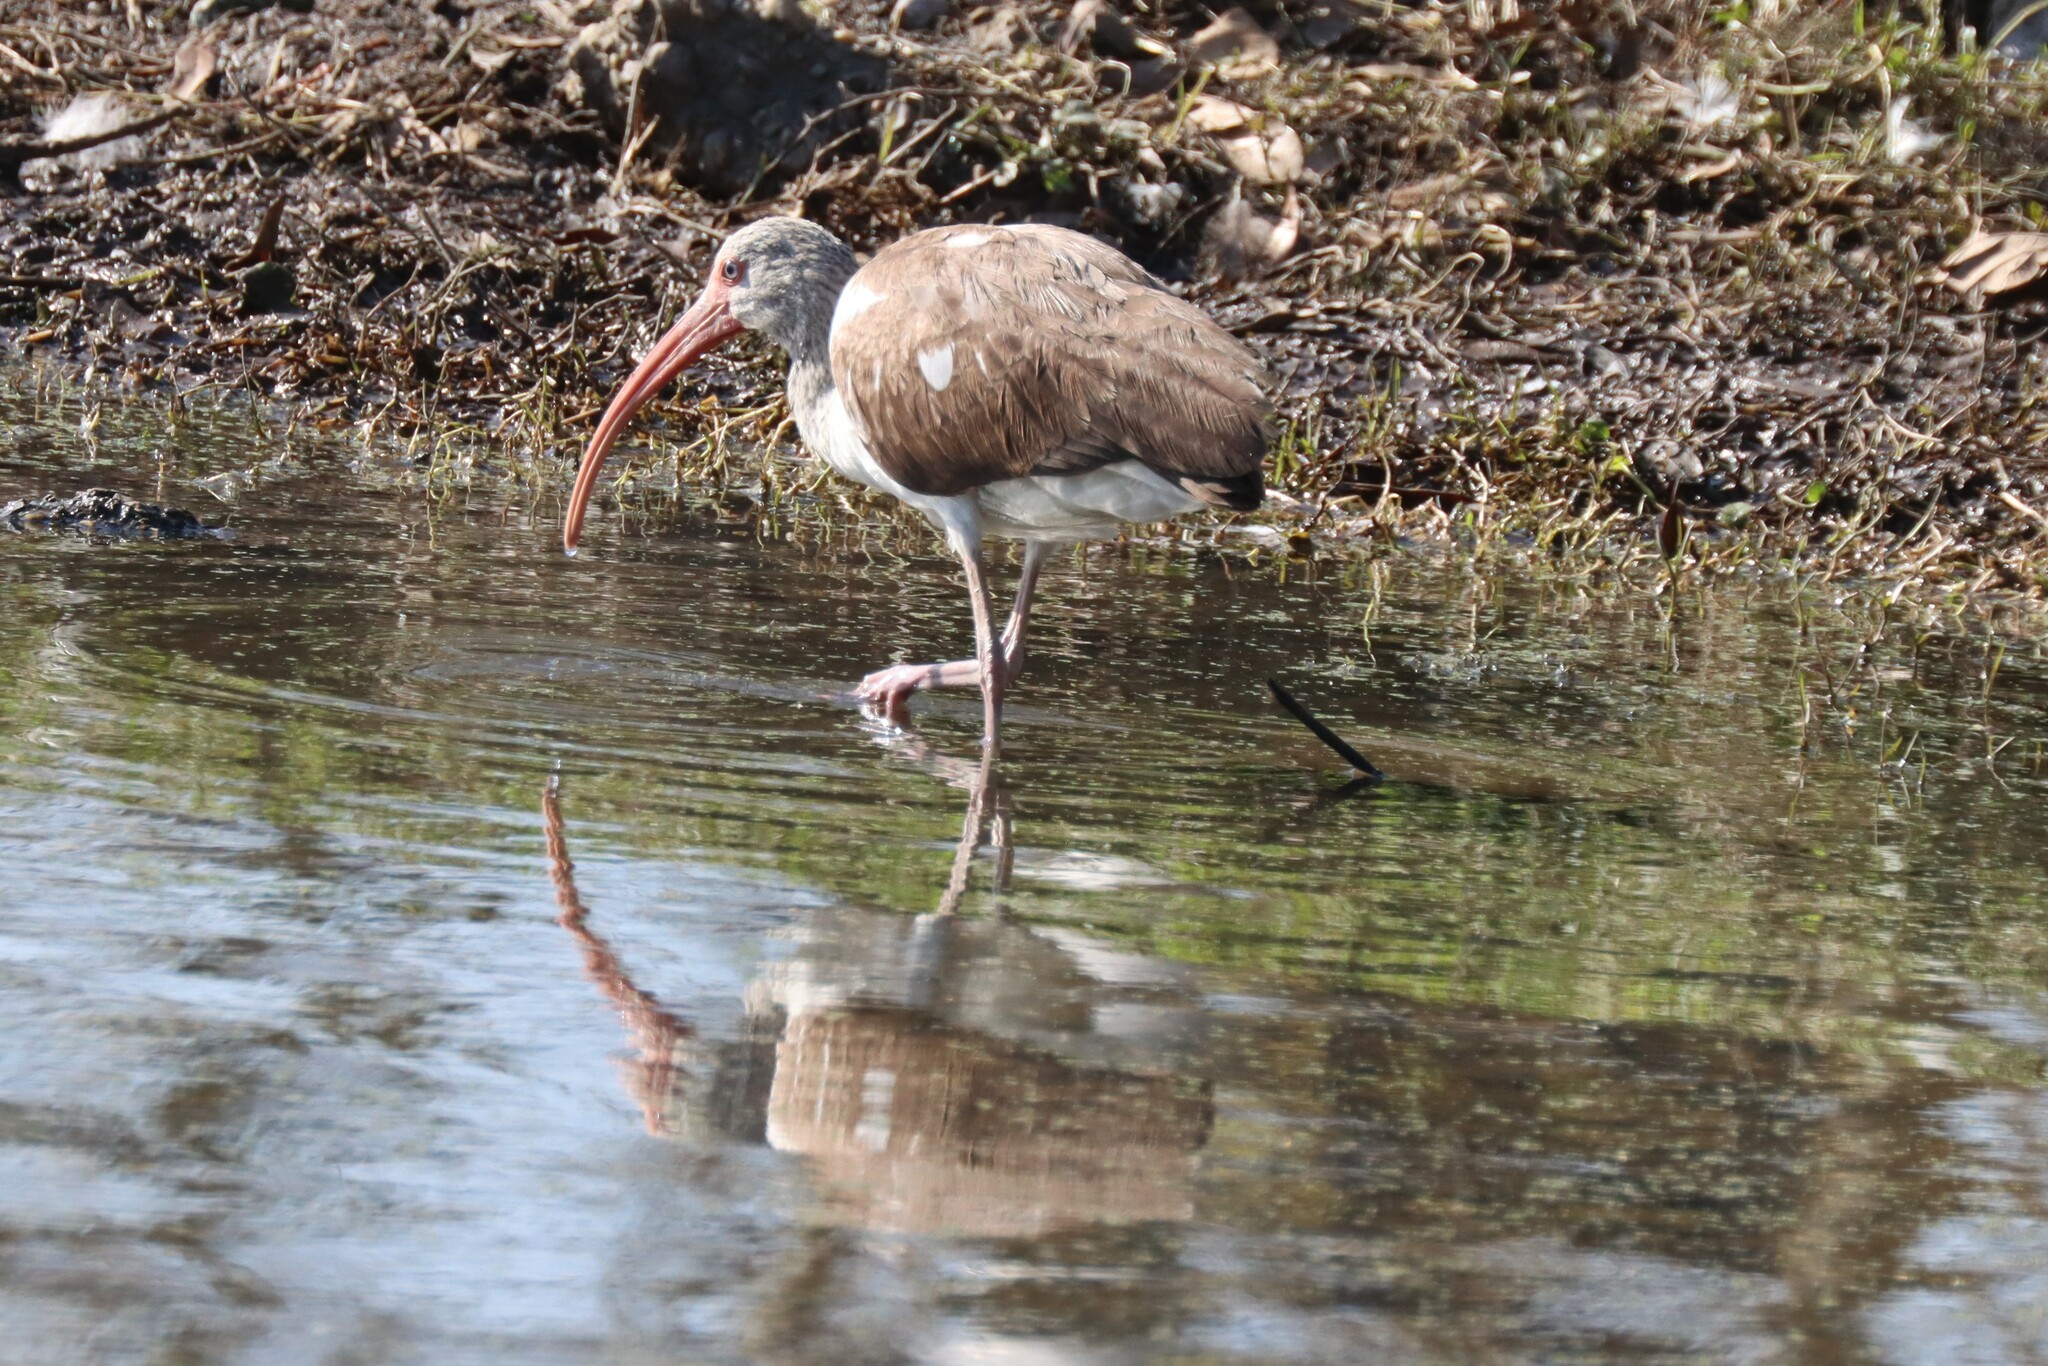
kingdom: Animalia
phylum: Chordata
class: Aves
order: Pelecaniformes
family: Threskiornithidae
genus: Eudocimus
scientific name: Eudocimus albus
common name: White ibis
